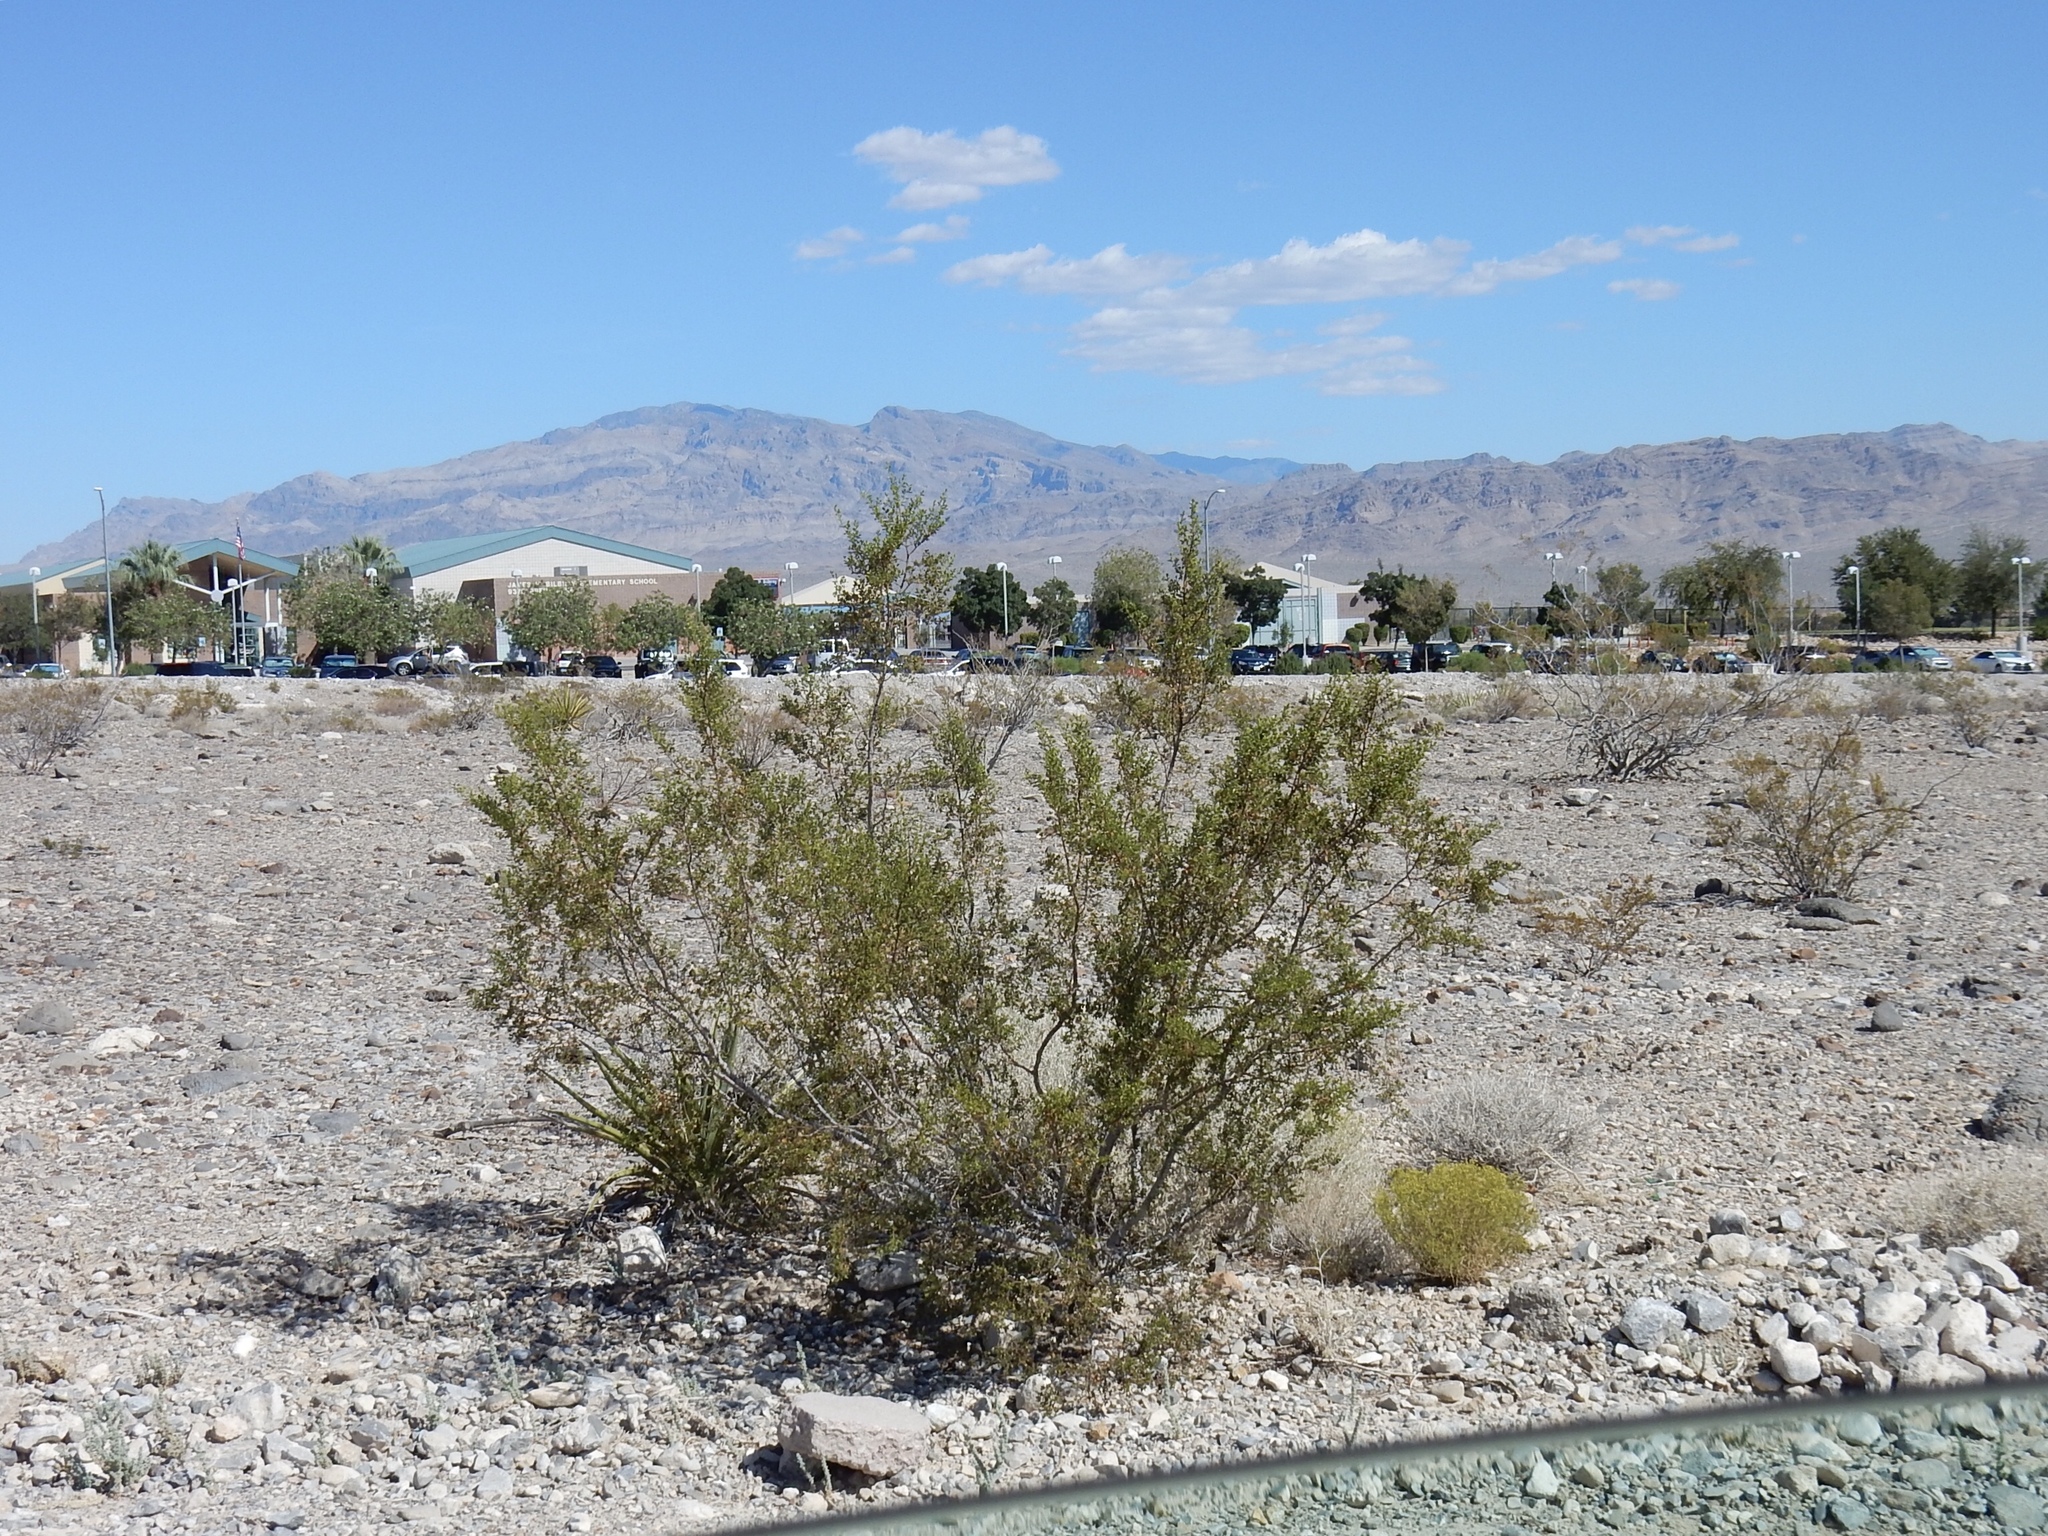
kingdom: Plantae
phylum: Tracheophyta
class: Magnoliopsida
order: Zygophyllales
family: Zygophyllaceae
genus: Larrea
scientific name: Larrea tridentata
